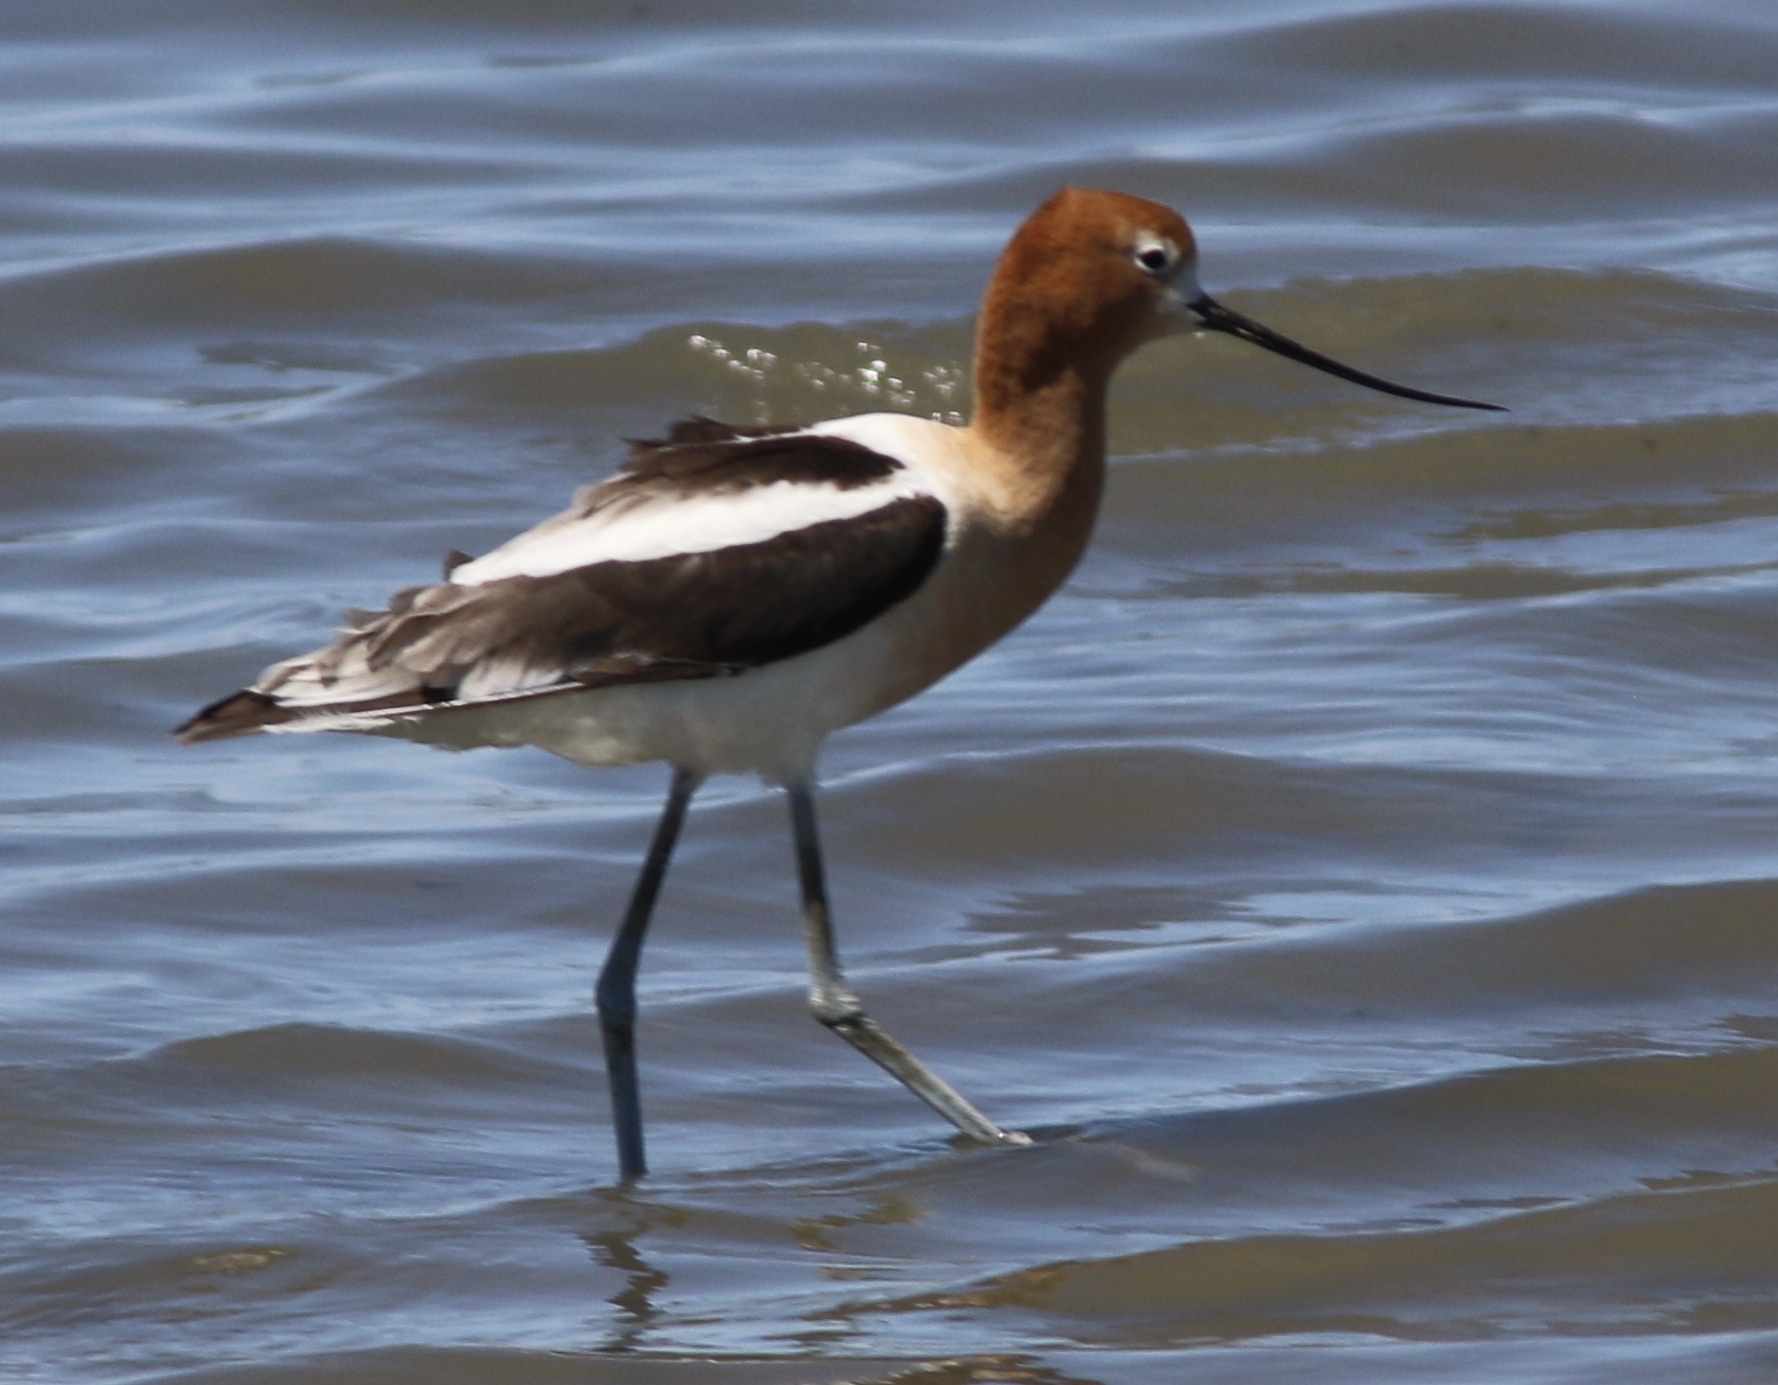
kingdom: Animalia
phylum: Chordata
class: Aves
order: Charadriiformes
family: Recurvirostridae
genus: Recurvirostra
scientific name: Recurvirostra americana
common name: American avocet
